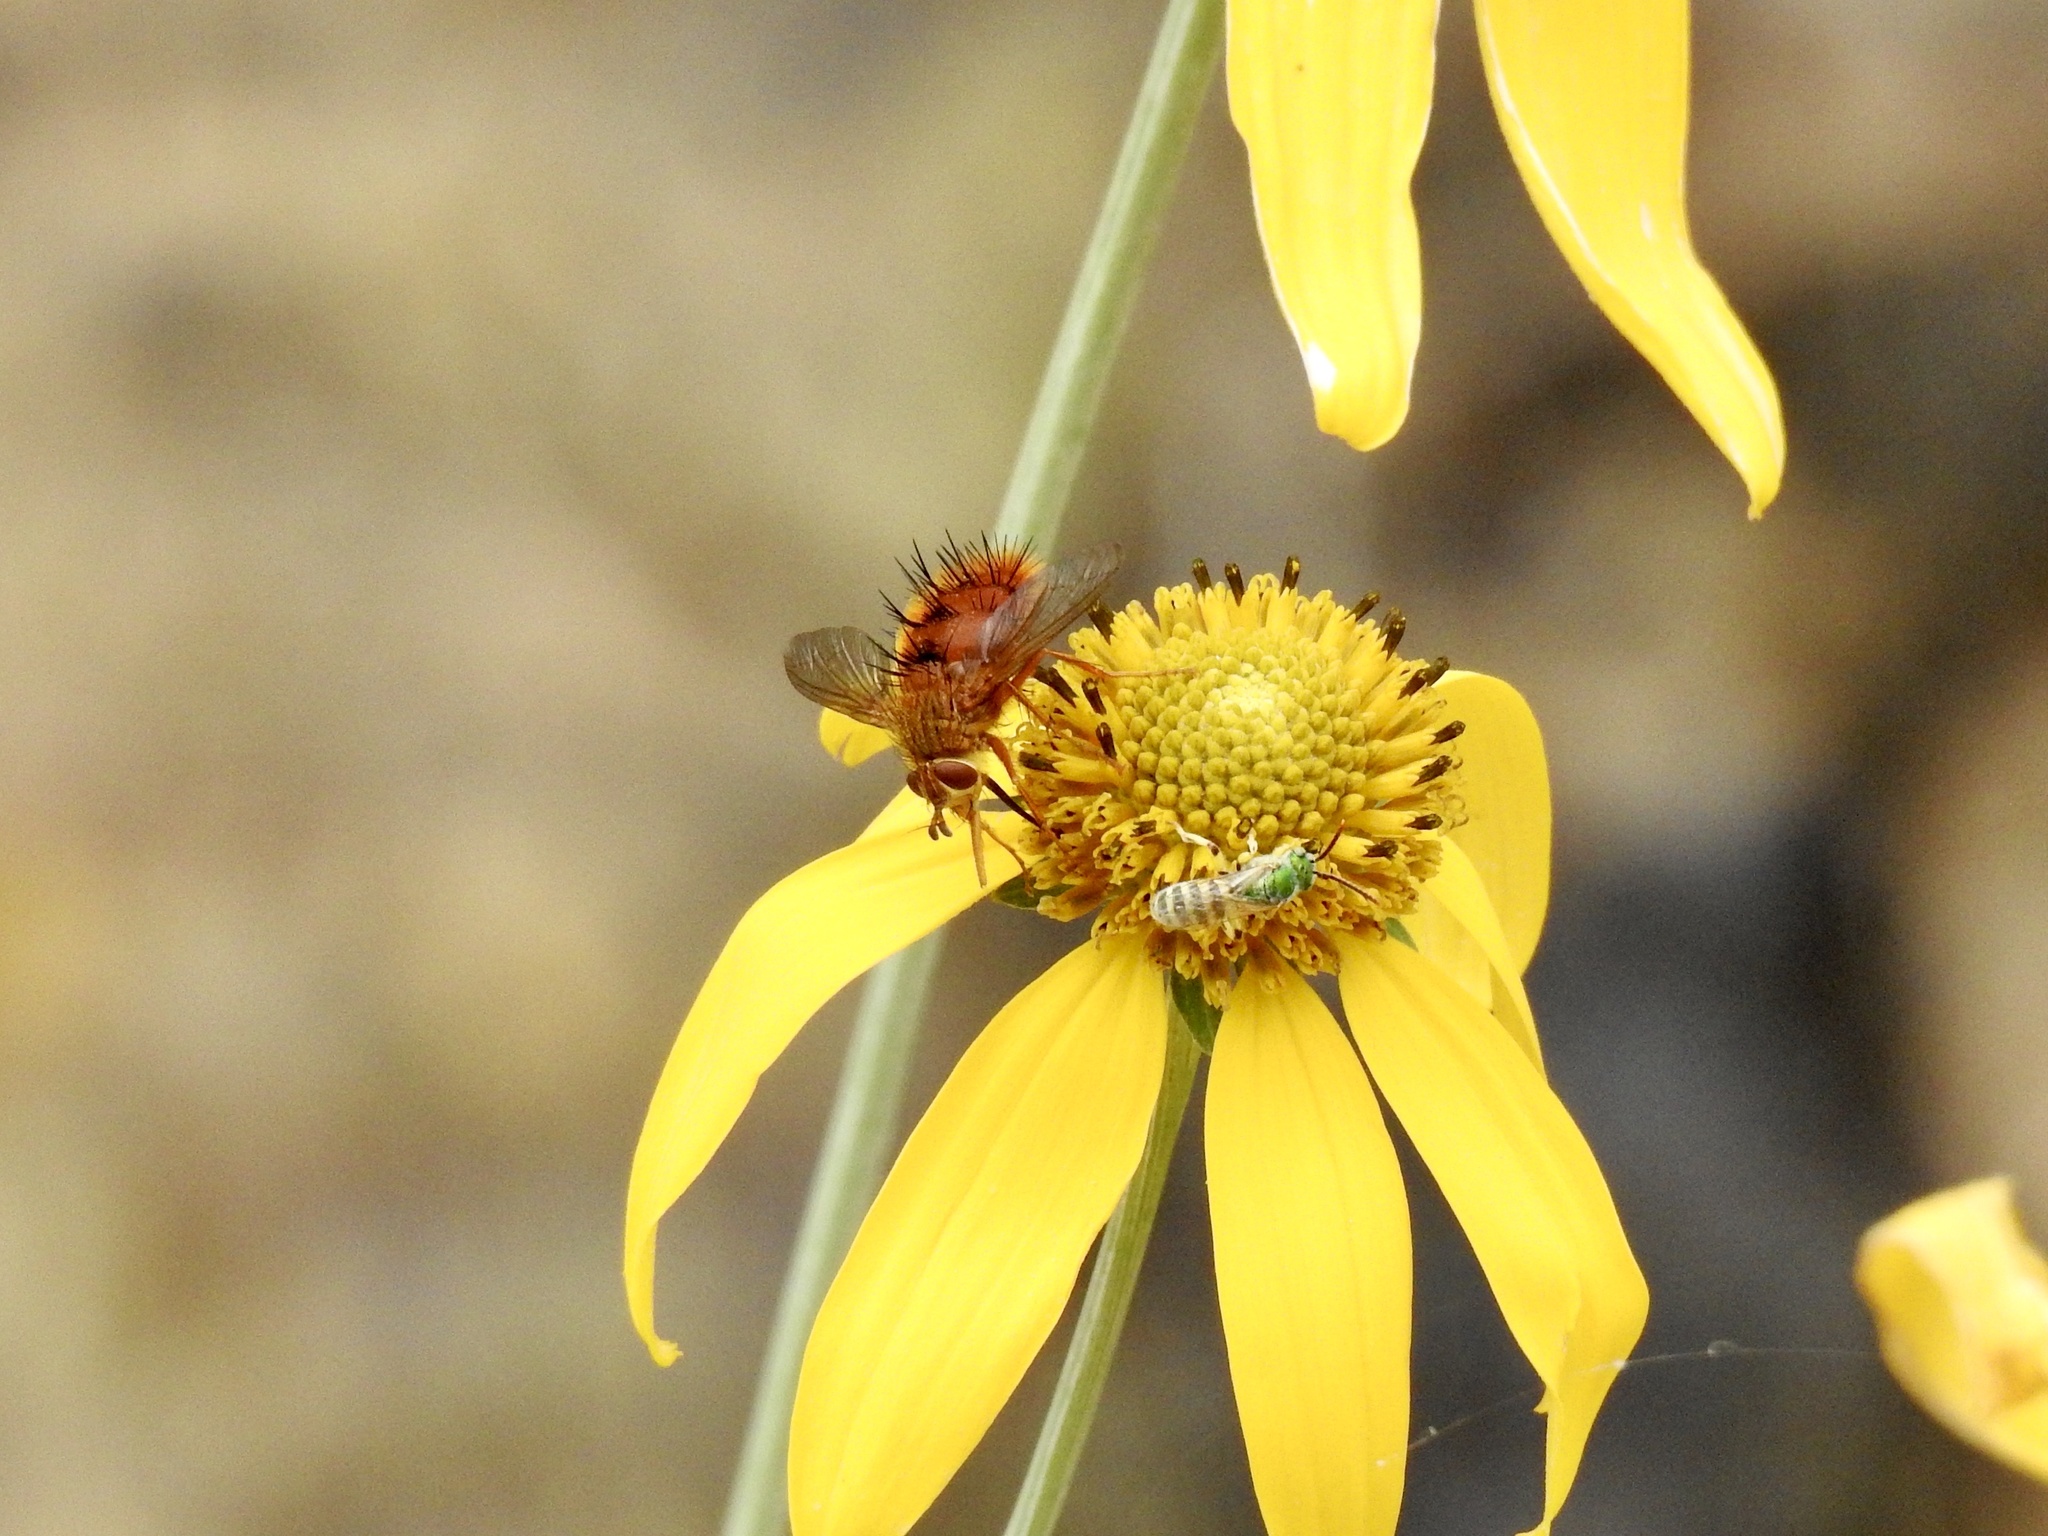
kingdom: Animalia
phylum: Arthropoda
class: Insecta
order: Diptera
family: Tachinidae
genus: Adejeania
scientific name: Adejeania vexatrix
